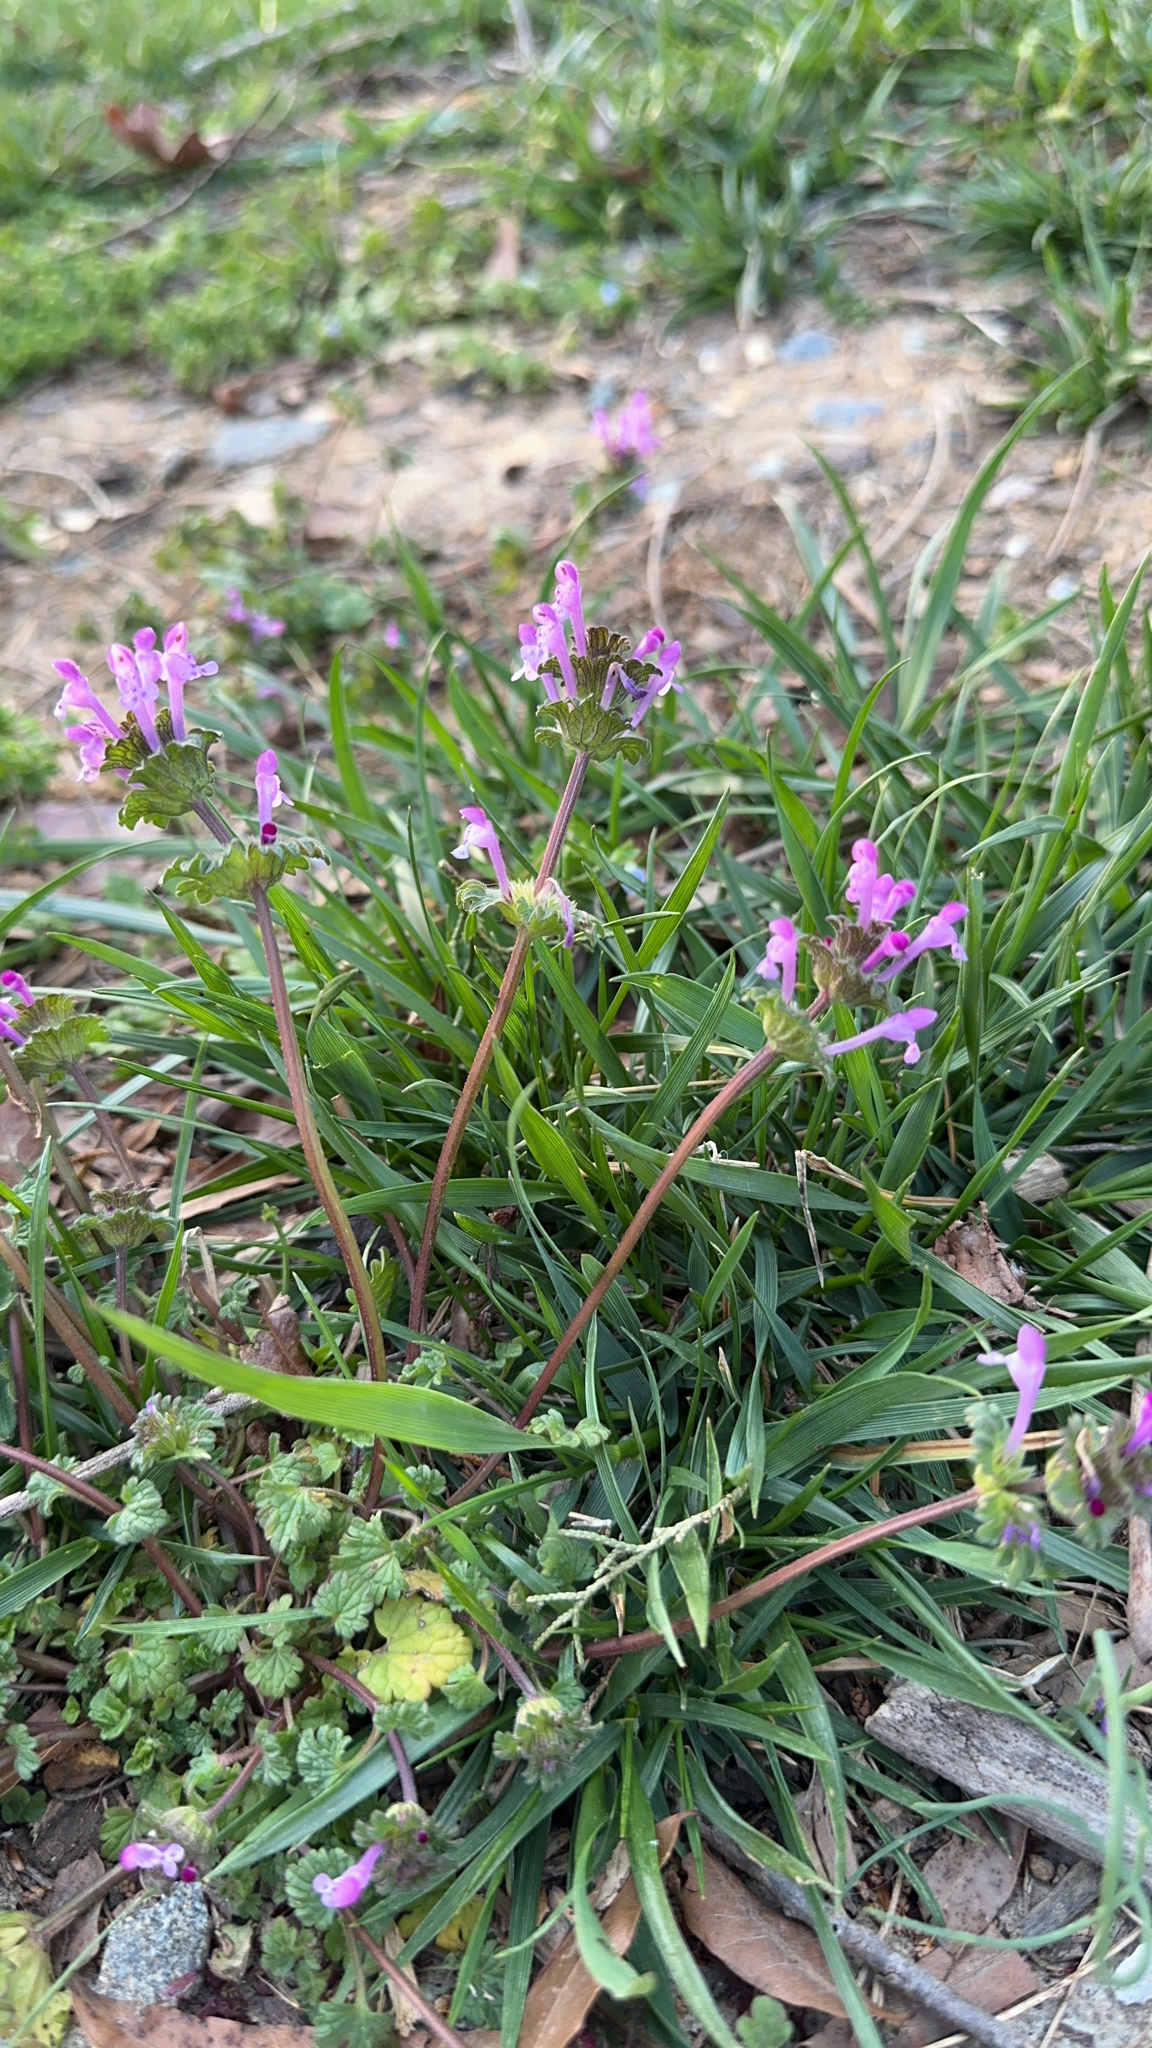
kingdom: Plantae
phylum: Tracheophyta
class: Magnoliopsida
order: Lamiales
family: Lamiaceae
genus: Lamium
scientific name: Lamium amplexicaule
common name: Henbit dead-nettle
